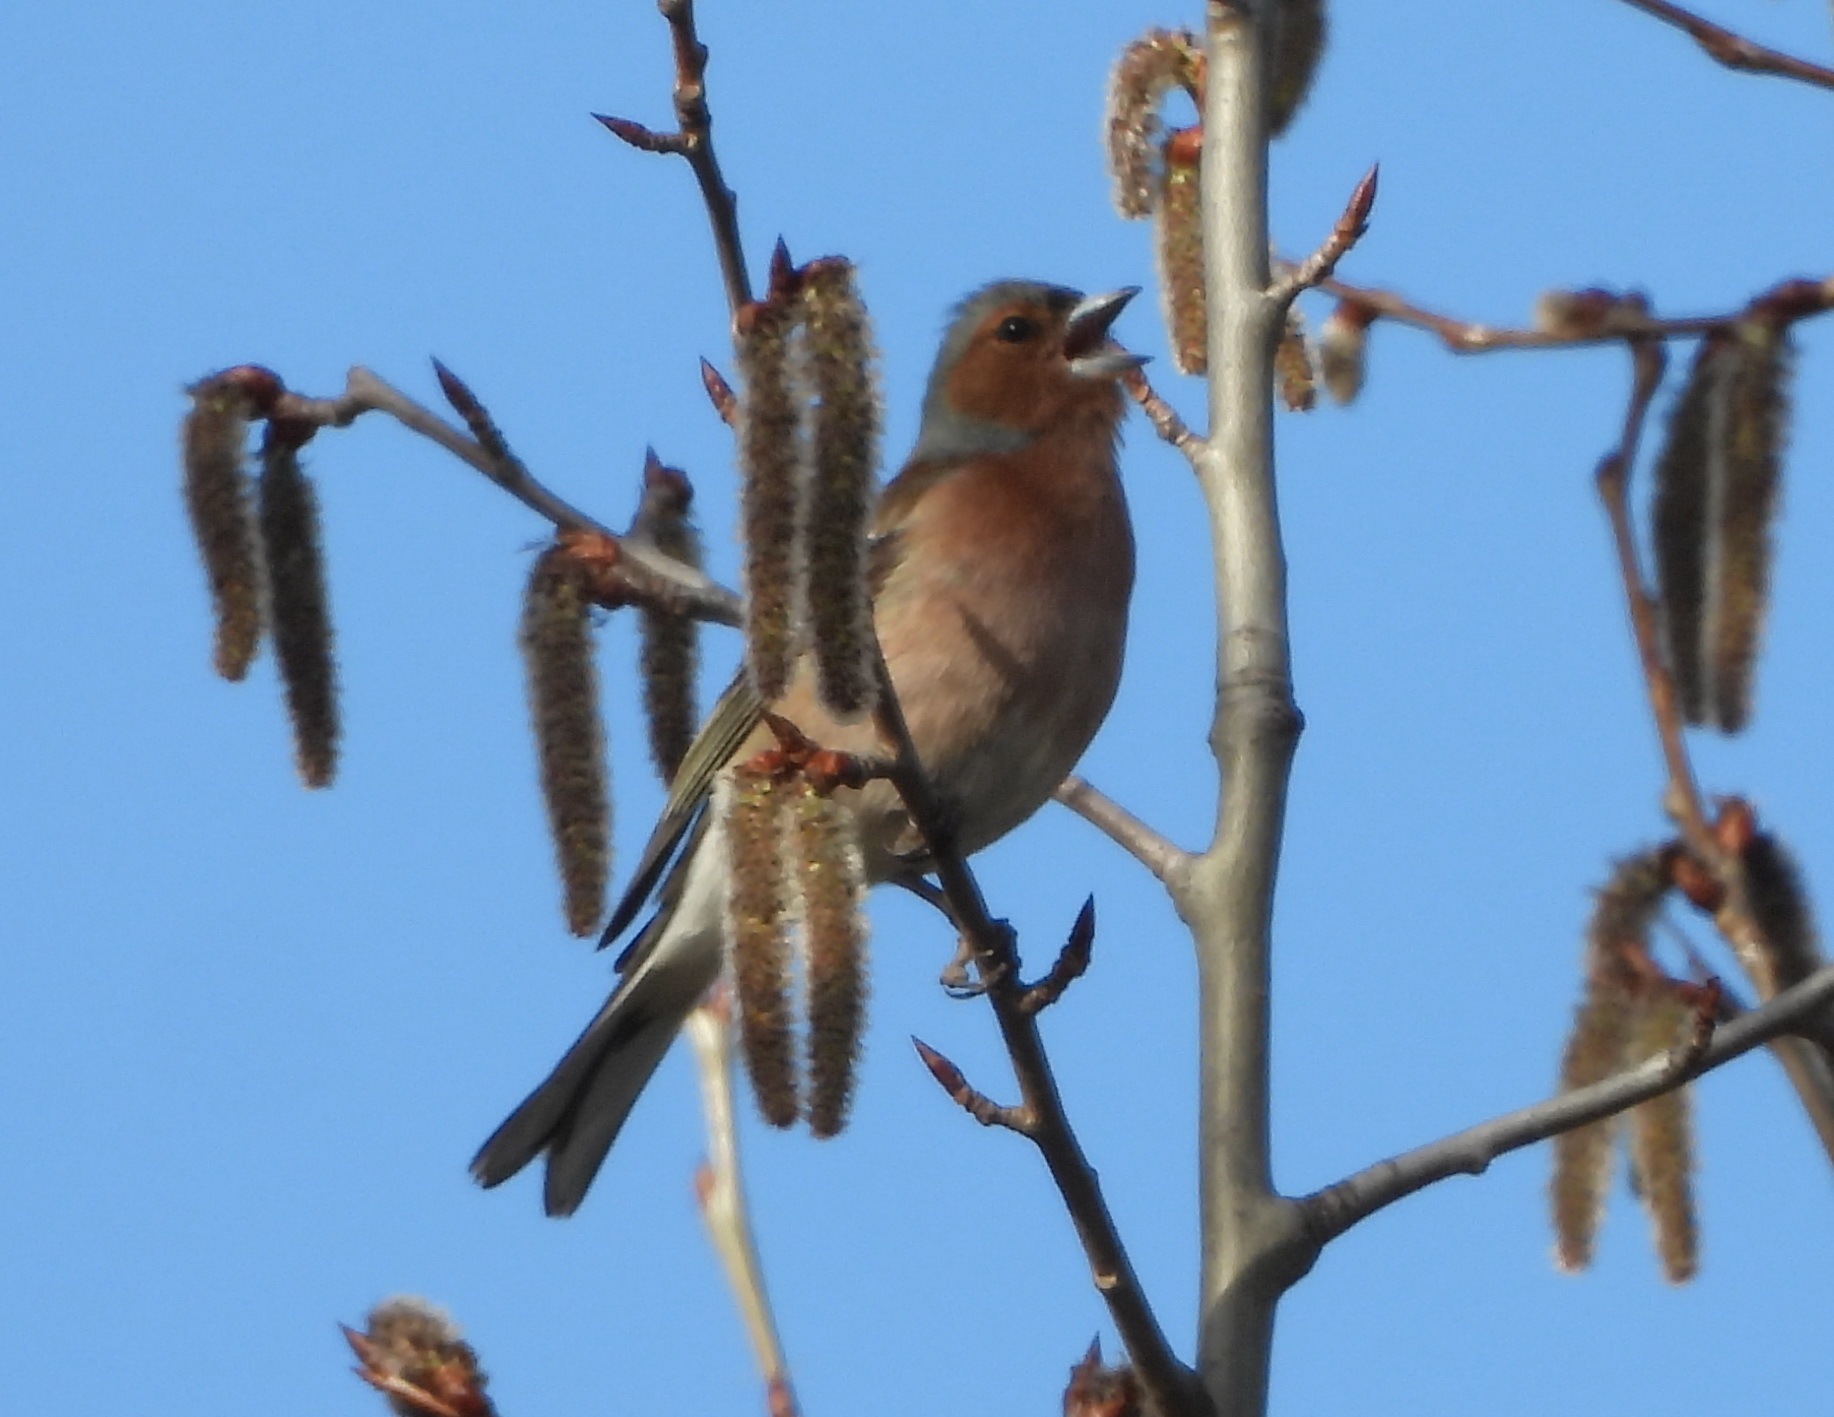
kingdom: Animalia
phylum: Chordata
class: Aves
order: Passeriformes
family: Fringillidae
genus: Fringilla
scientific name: Fringilla coelebs
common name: Common chaffinch
